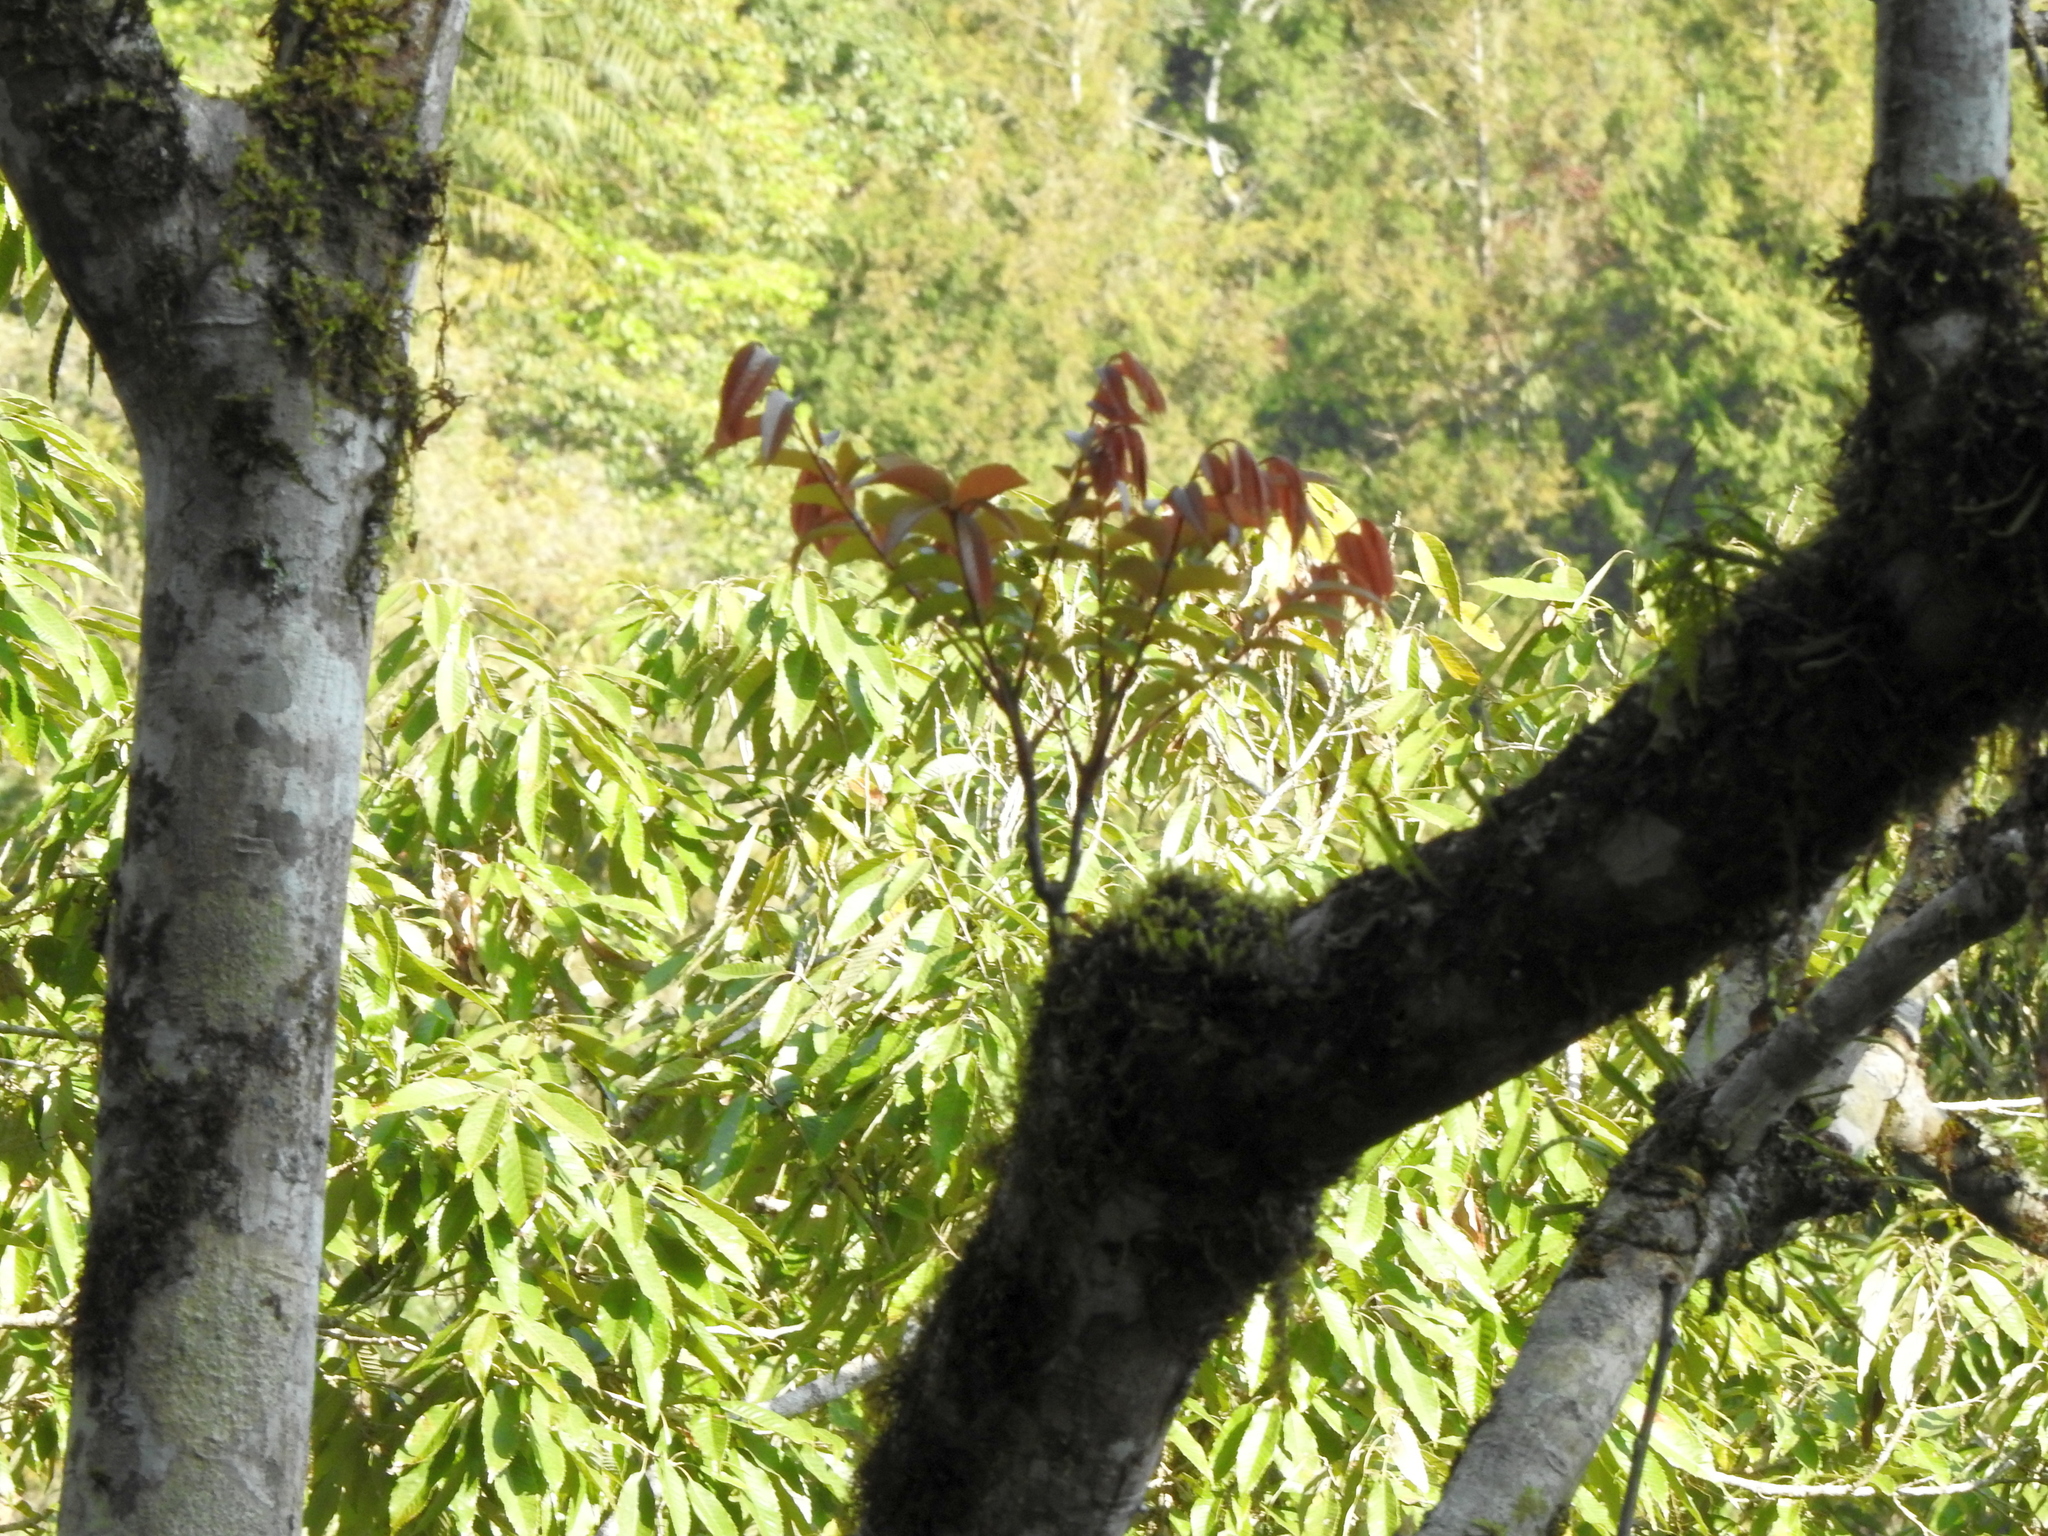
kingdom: Plantae
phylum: Tracheophyta
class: Magnoliopsida
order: Proteales
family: Sabiaceae
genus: Meliosma
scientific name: Meliosma rhoifolia
